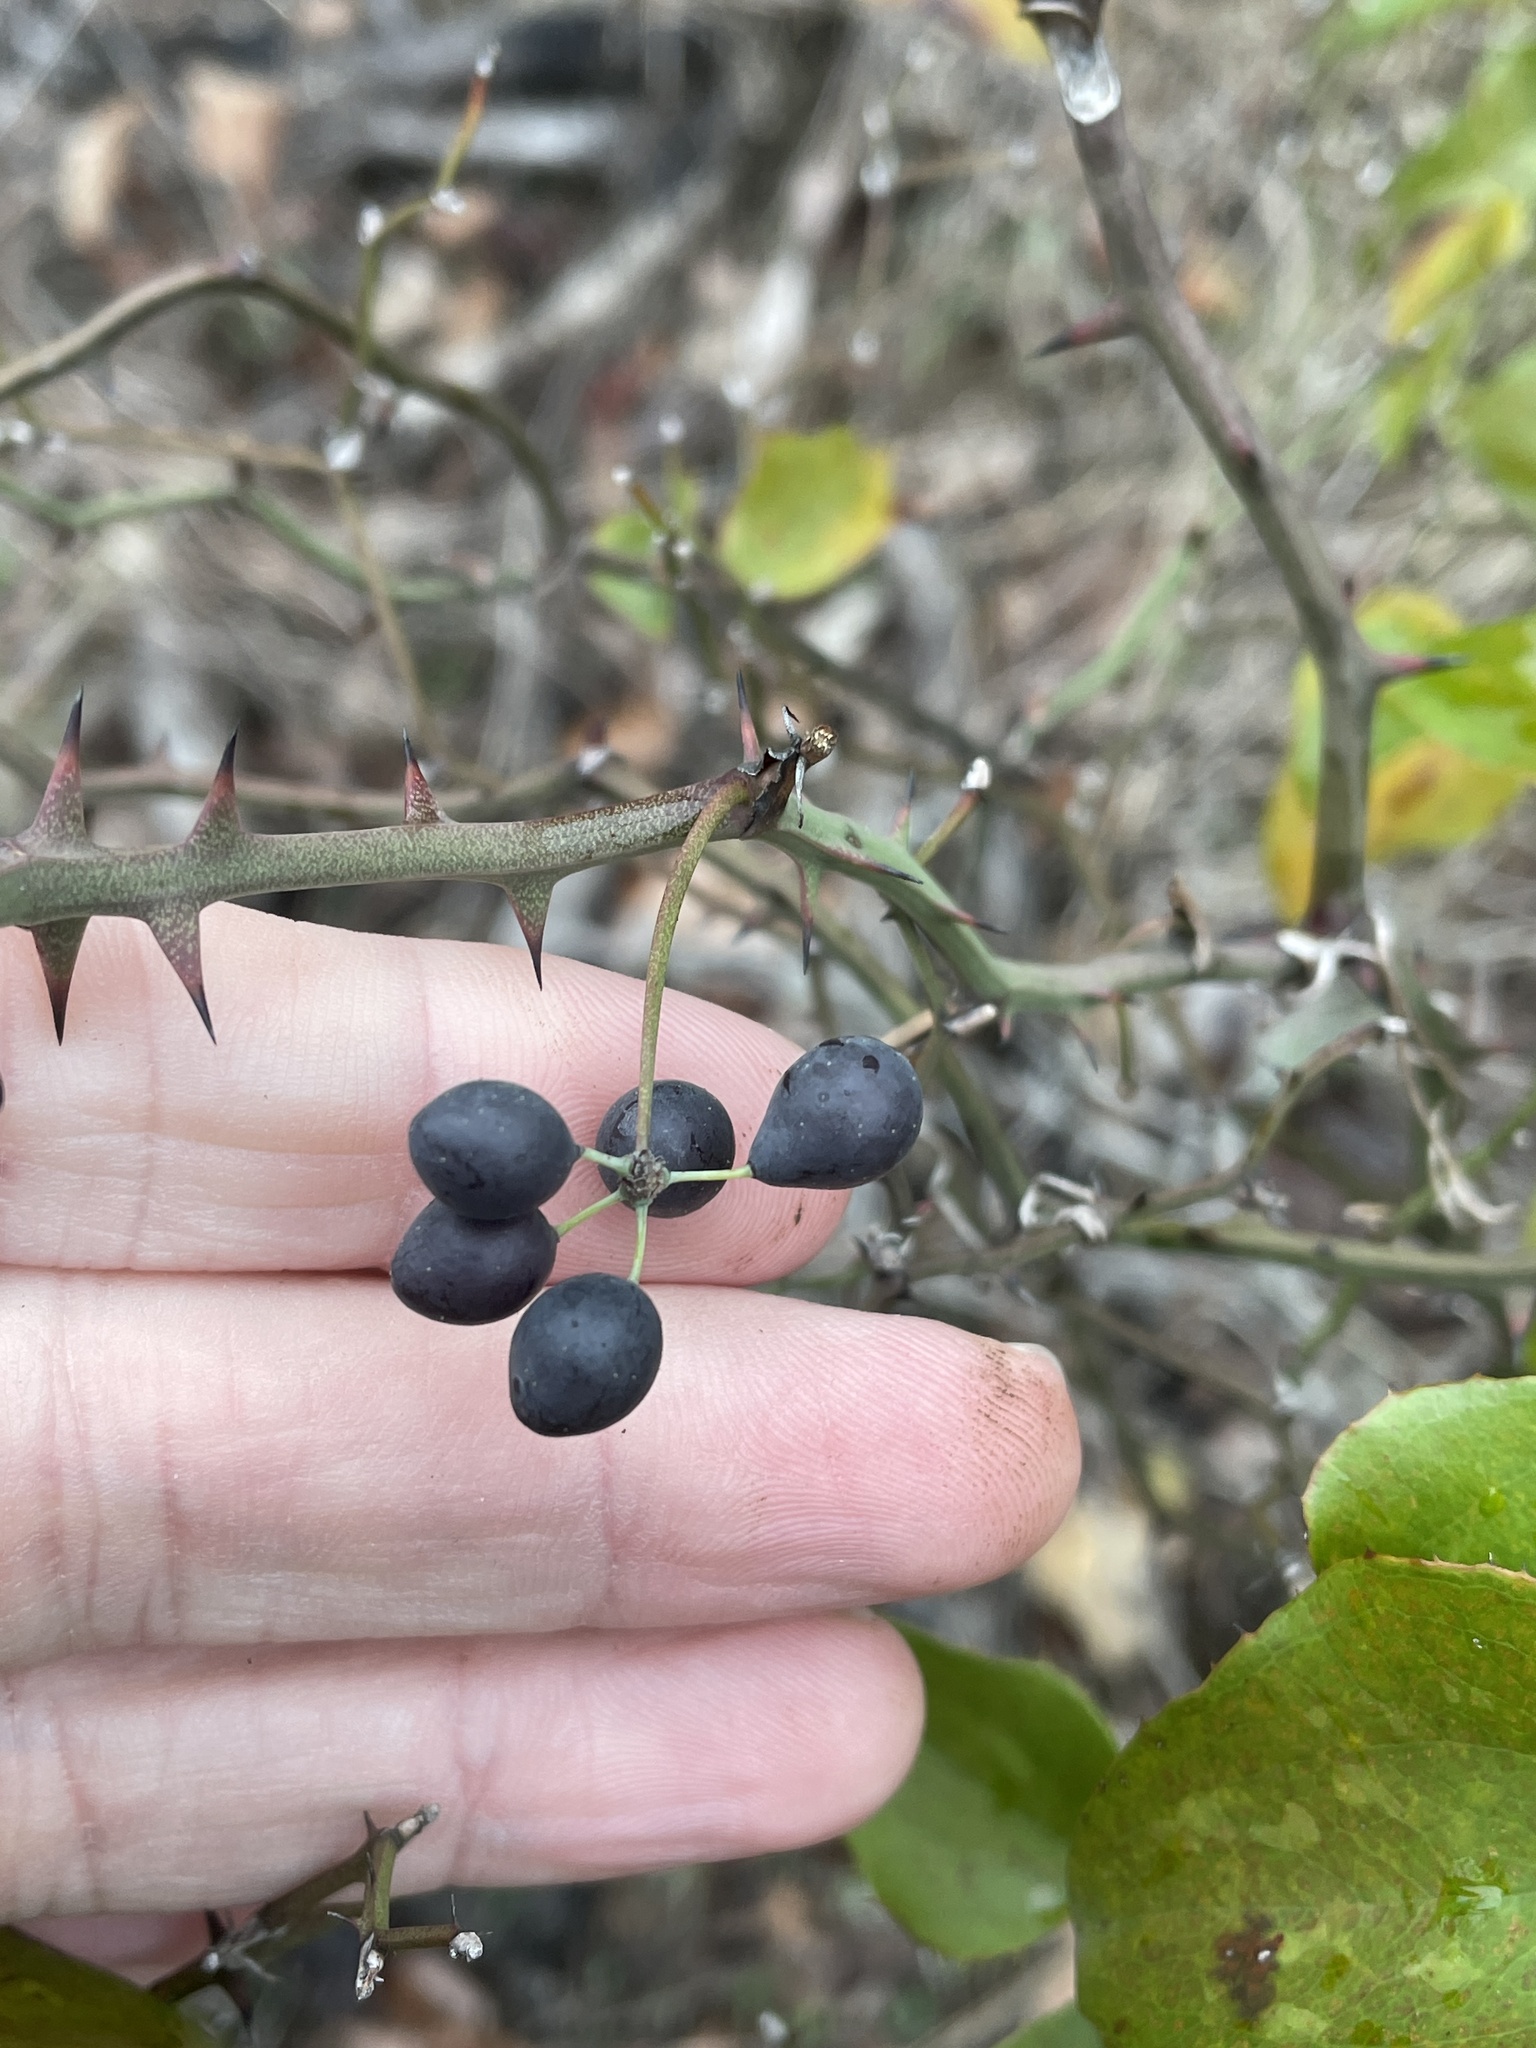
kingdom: Plantae
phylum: Tracheophyta
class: Liliopsida
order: Liliales
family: Smilacaceae
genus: Smilax
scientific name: Smilax bona-nox
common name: Catbrier
